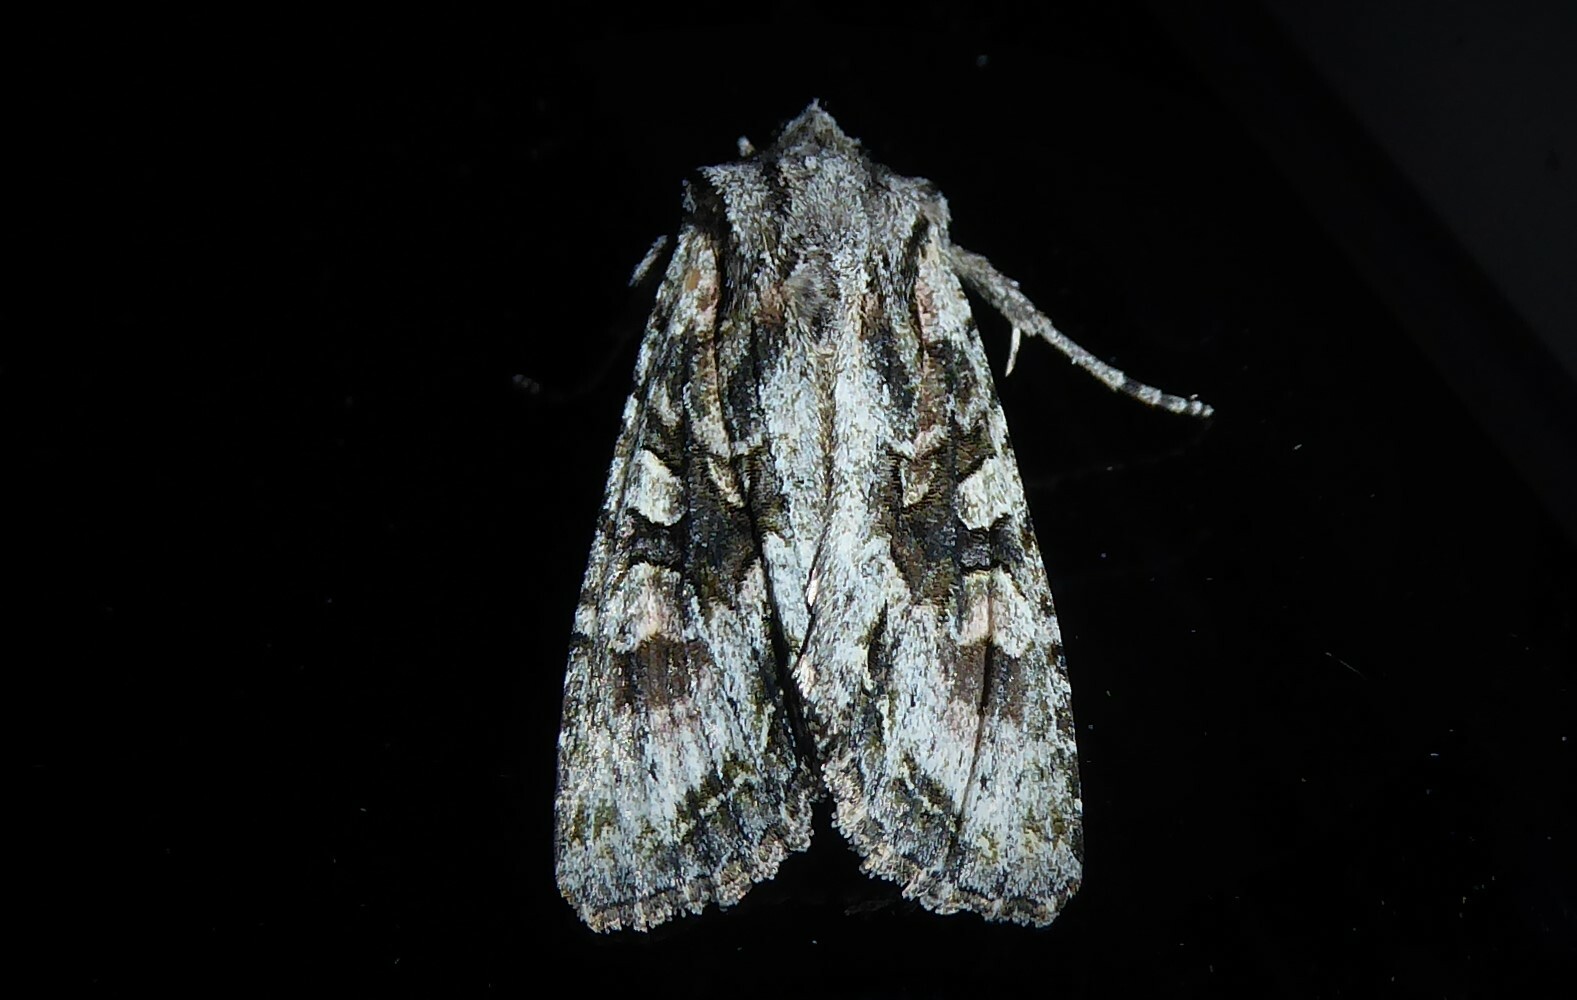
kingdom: Animalia
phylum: Arthropoda
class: Insecta
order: Lepidoptera
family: Noctuidae
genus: Ichneutica
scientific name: Ichneutica mutans
